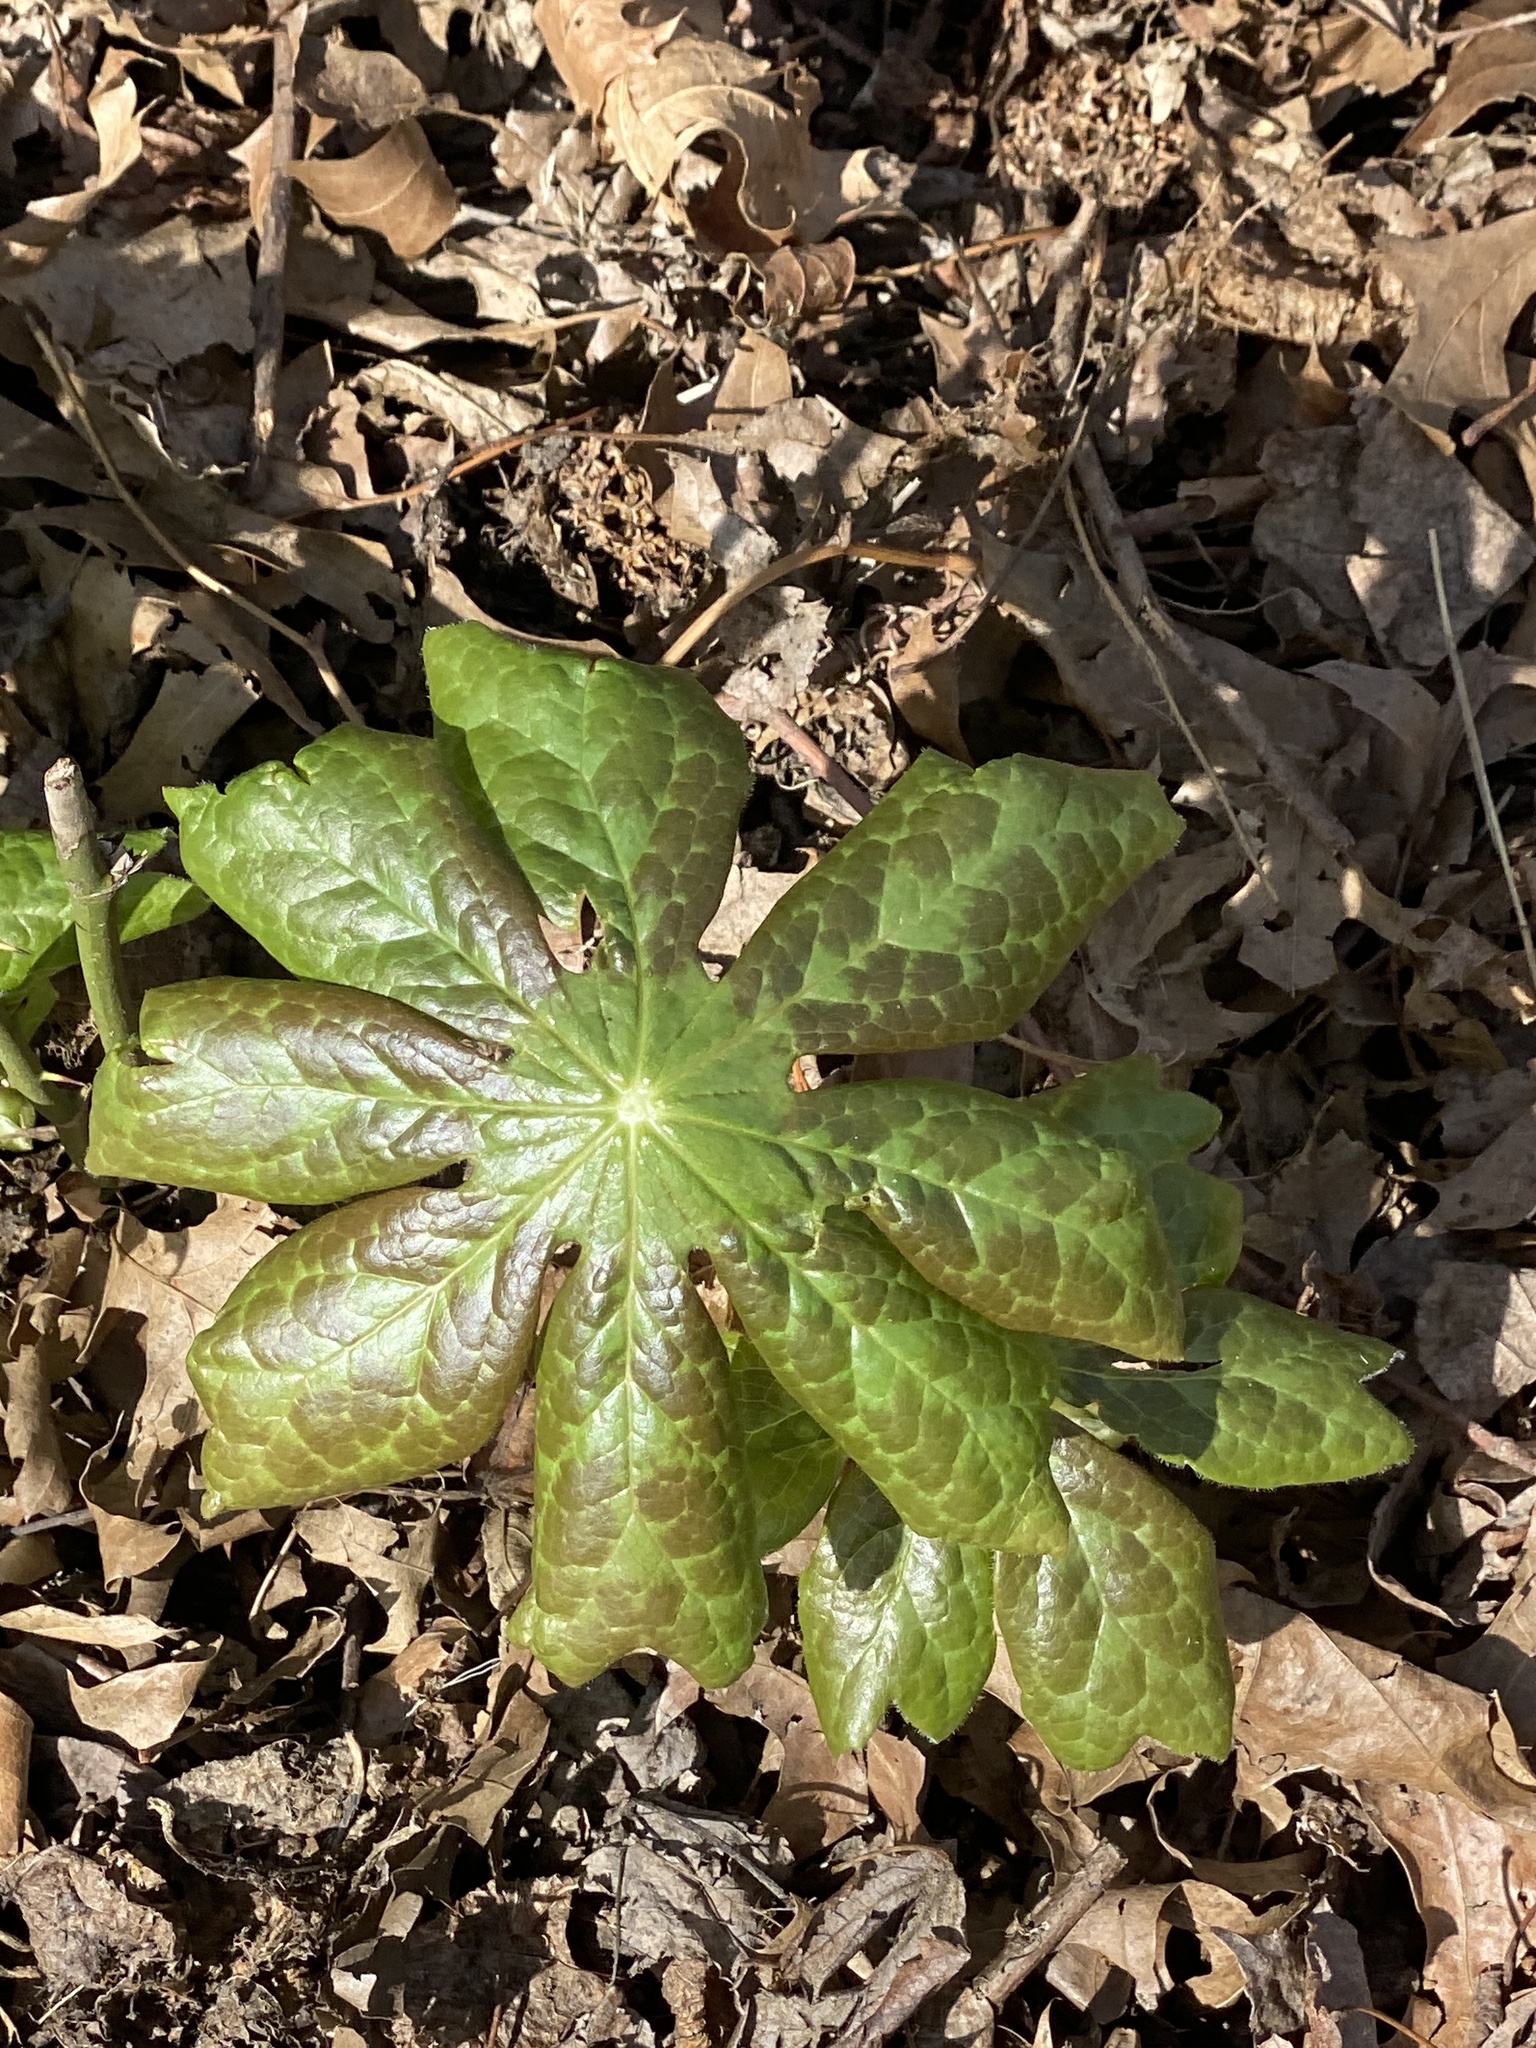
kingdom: Plantae
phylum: Tracheophyta
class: Magnoliopsida
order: Ranunculales
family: Berberidaceae
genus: Podophyllum
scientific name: Podophyllum peltatum
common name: Wild mandrake
